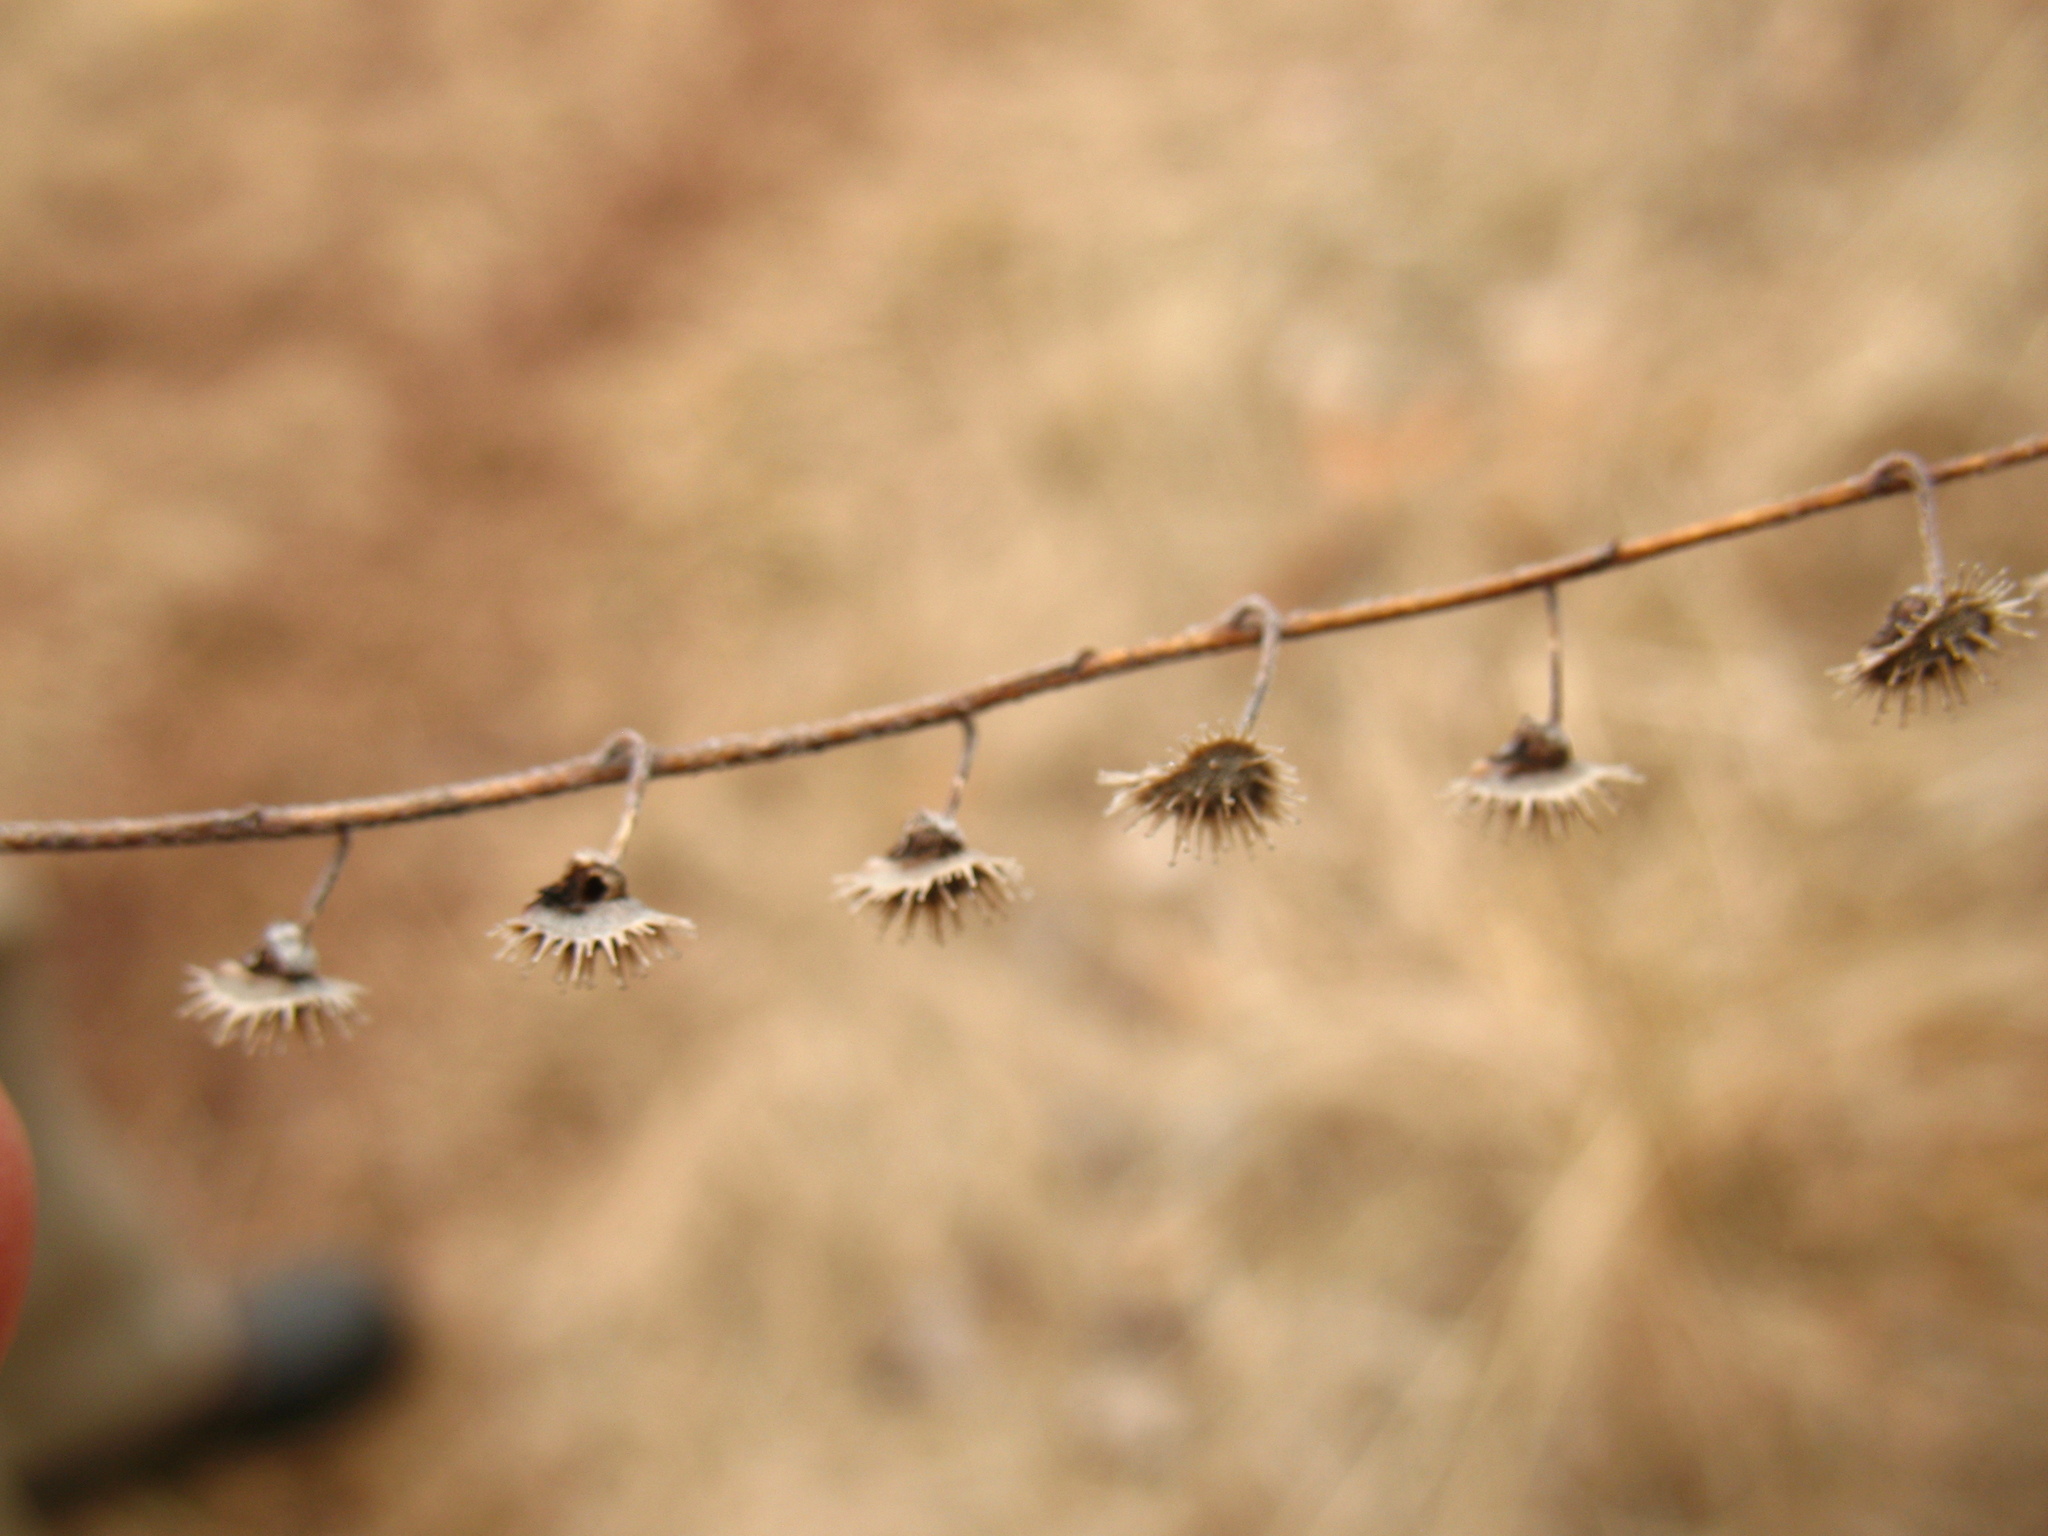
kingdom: Plantae
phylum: Tracheophyta
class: Magnoliopsida
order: Boraginales
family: Boraginaceae
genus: Hackelia
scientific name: Hackelia virginiana
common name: Beggar's-lice
